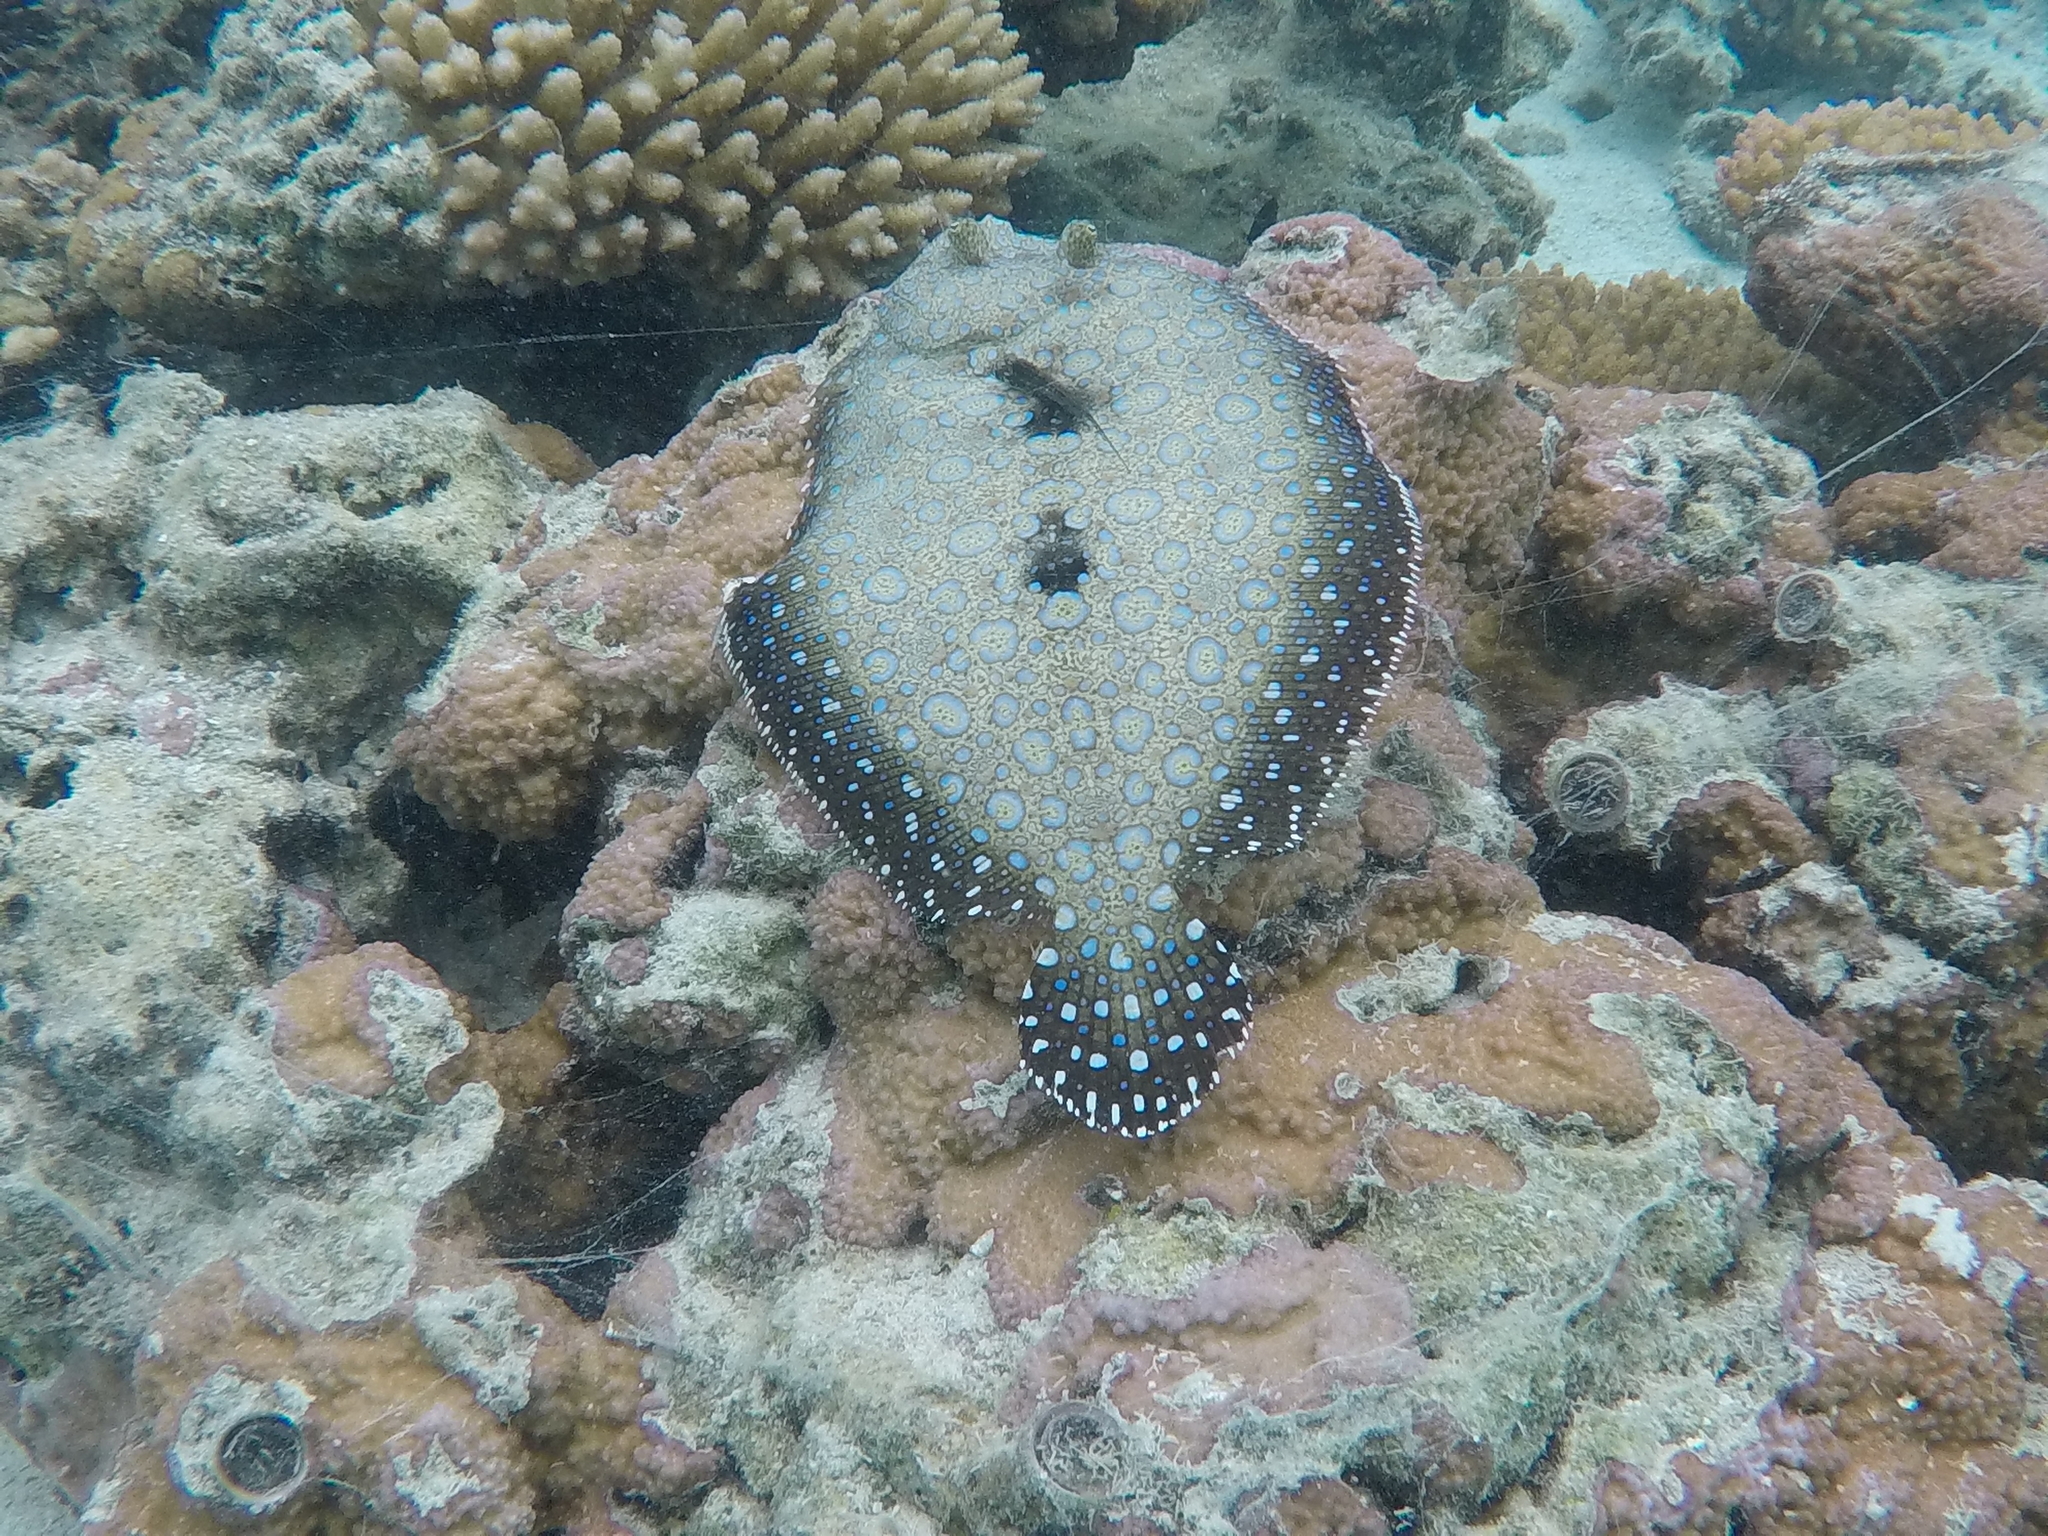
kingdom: Animalia
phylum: Chordata
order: Pleuronectiformes
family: Bothidae
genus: Bothus
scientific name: Bothus mancus
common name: Flowery flounder
